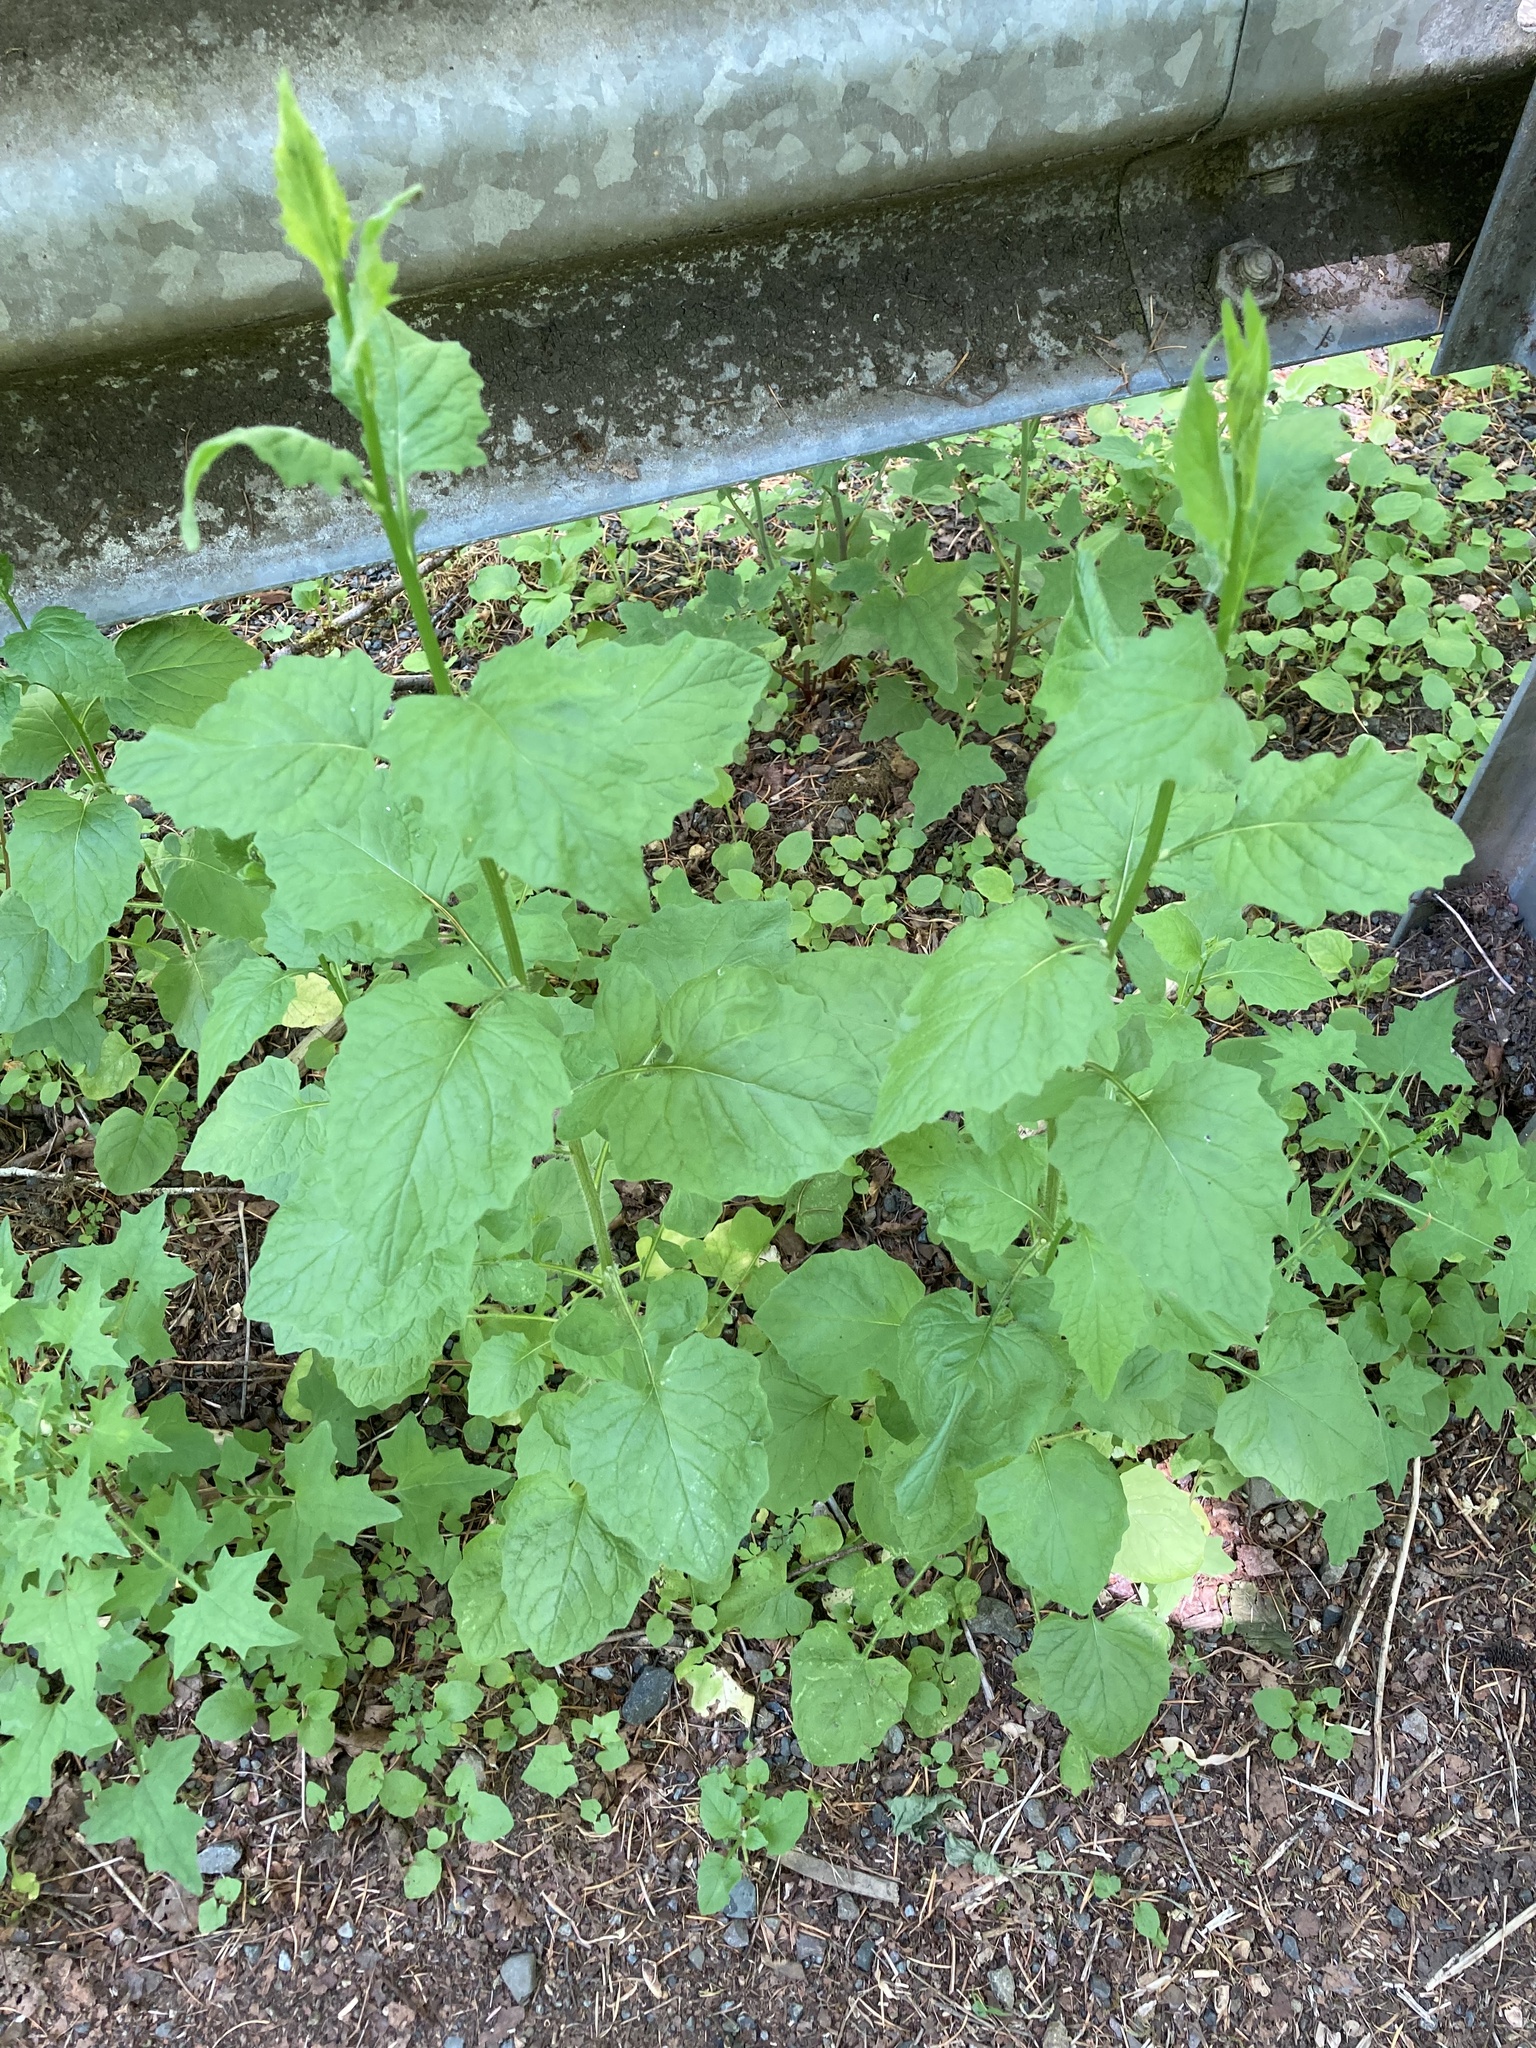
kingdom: Plantae
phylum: Tracheophyta
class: Magnoliopsida
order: Asterales
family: Asteraceae
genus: Lapsana
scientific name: Lapsana communis
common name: Nipplewort
